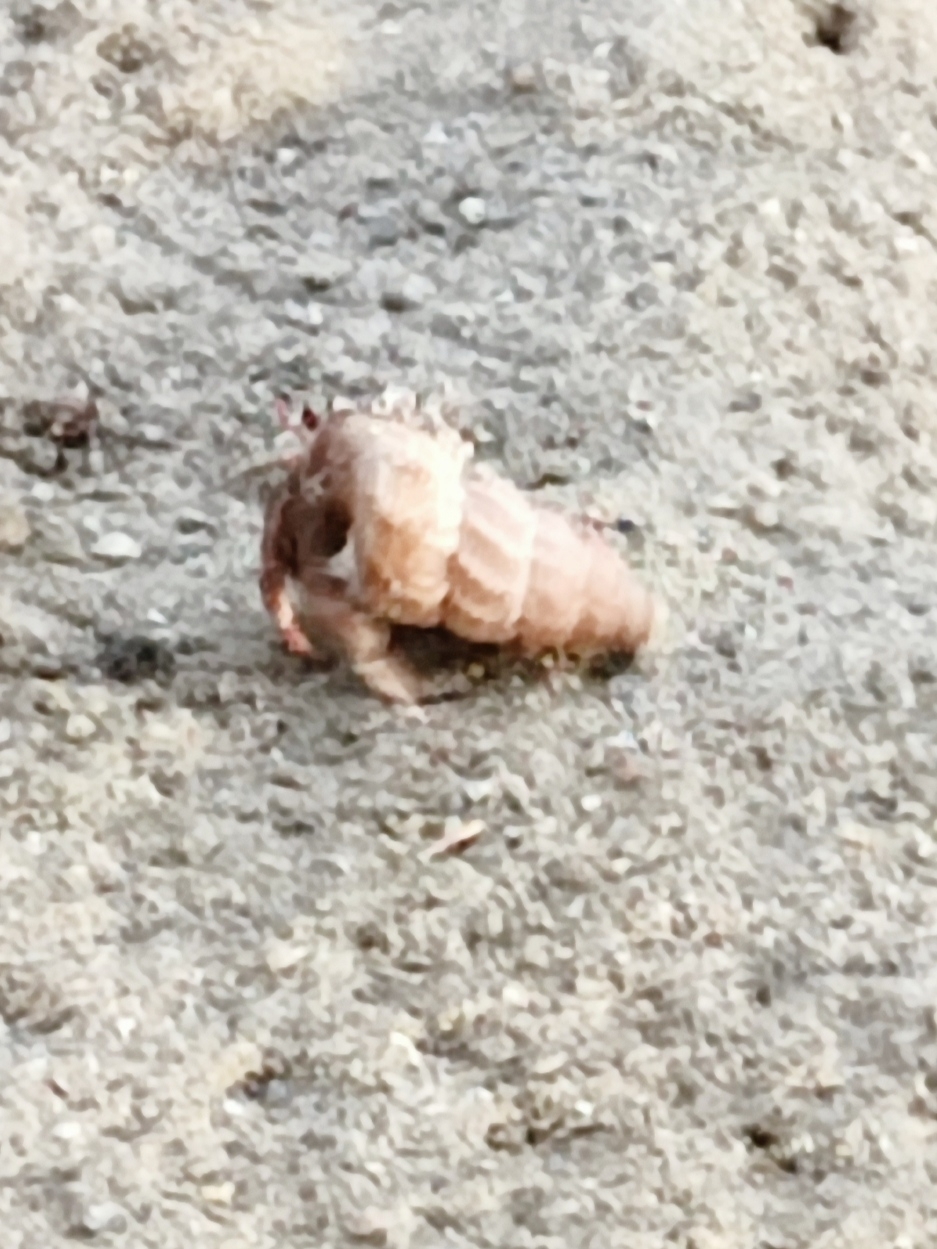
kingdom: Animalia
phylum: Arthropoda
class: Malacostraca
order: Decapoda
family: Coenobitidae
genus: Coenobita
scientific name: Coenobita violascens
